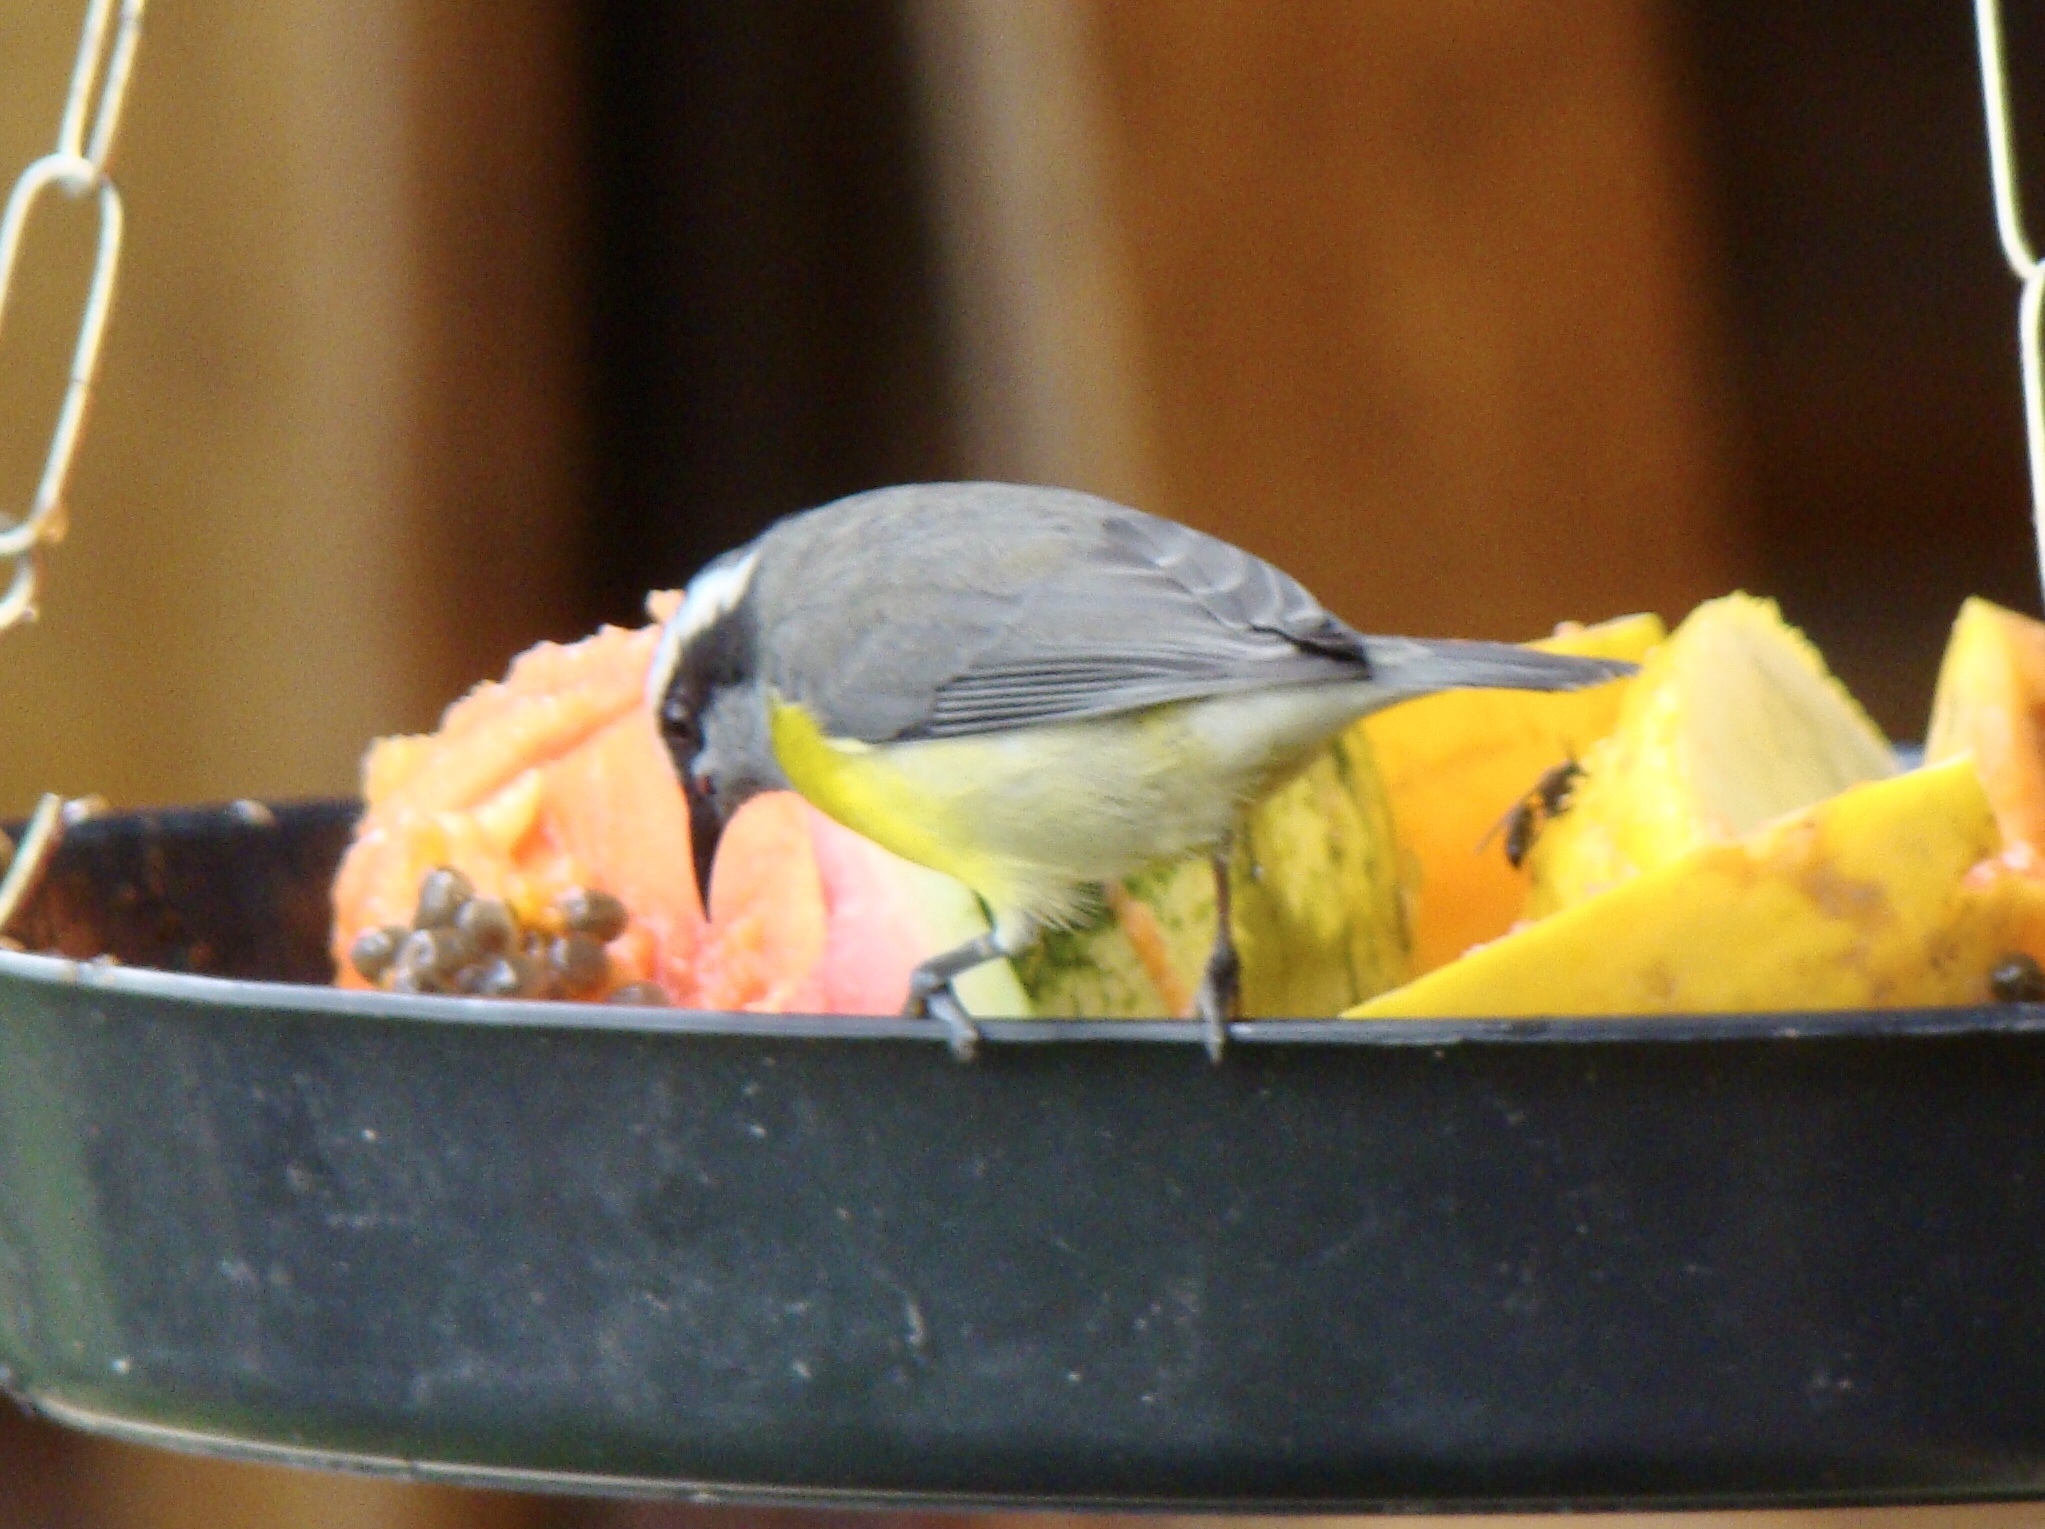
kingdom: Animalia
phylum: Chordata
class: Aves
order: Passeriformes
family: Thraupidae
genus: Coereba
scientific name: Coereba flaveola
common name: Bananaquit
